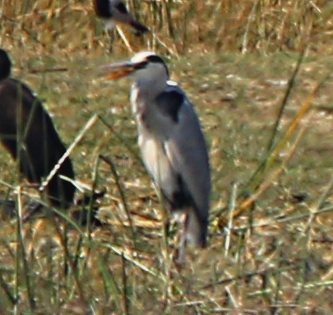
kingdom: Animalia
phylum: Chordata
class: Aves
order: Pelecaniformes
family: Ardeidae
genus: Ardea
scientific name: Ardea cinerea
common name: Grey heron
